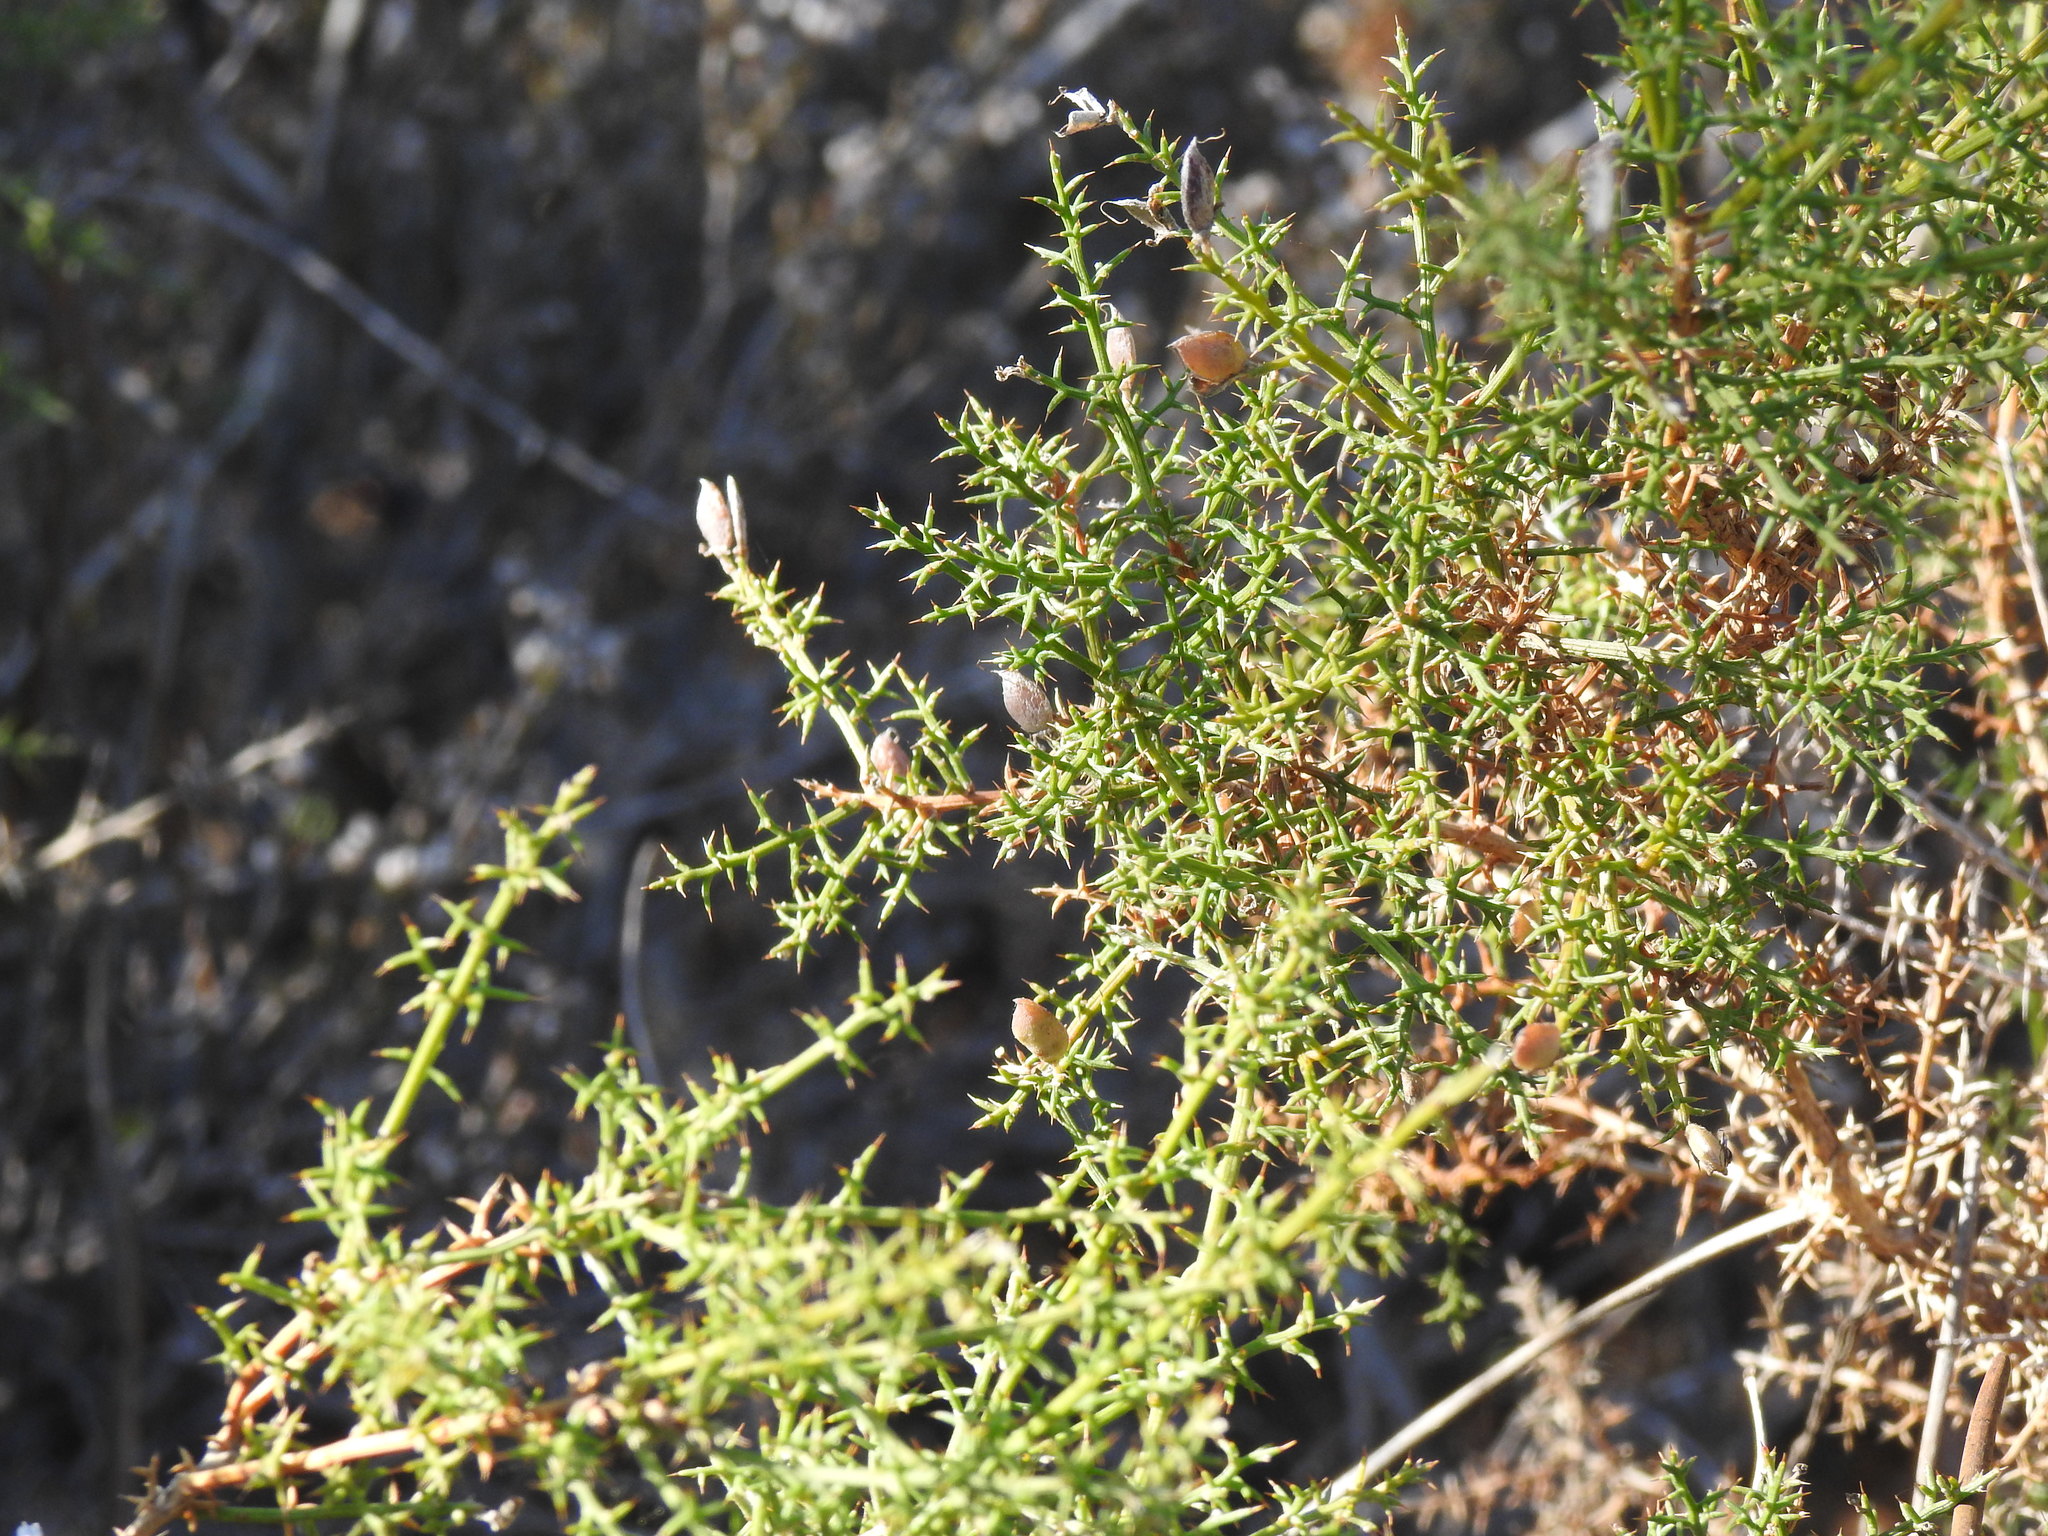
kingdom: Plantae
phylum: Tracheophyta
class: Magnoliopsida
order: Fabales
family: Fabaceae
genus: Stauracanthus
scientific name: Stauracanthus boivinii
